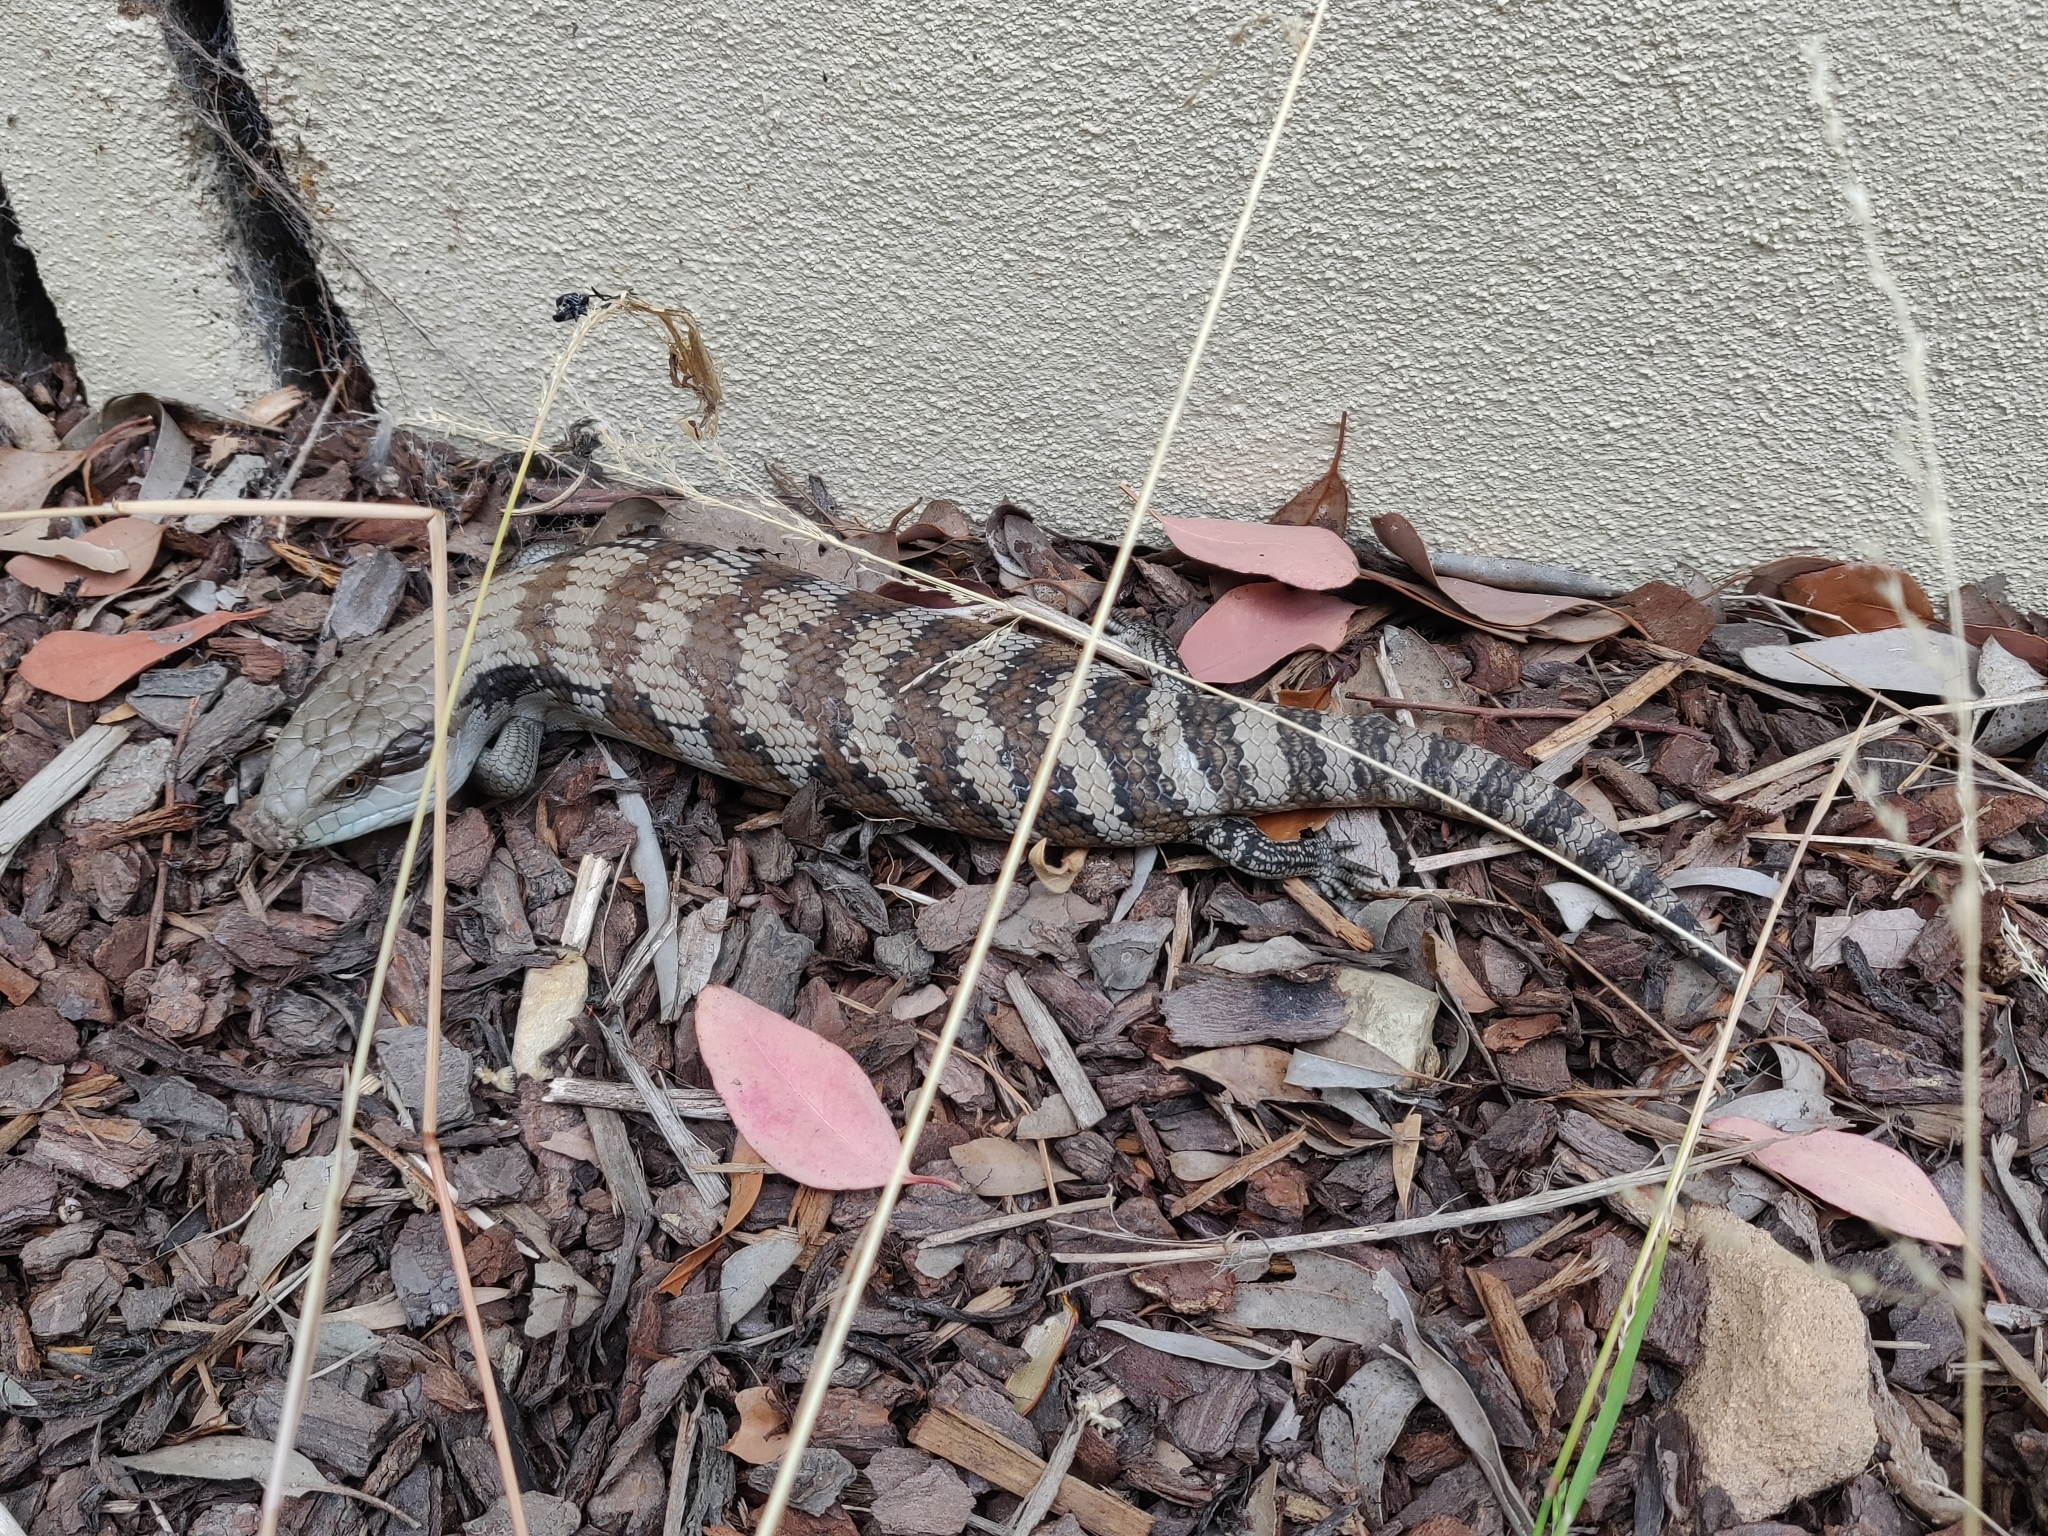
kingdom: Animalia
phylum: Chordata
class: Squamata
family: Scincidae
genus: Tiliqua
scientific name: Tiliqua scincoides
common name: Common bluetongue
